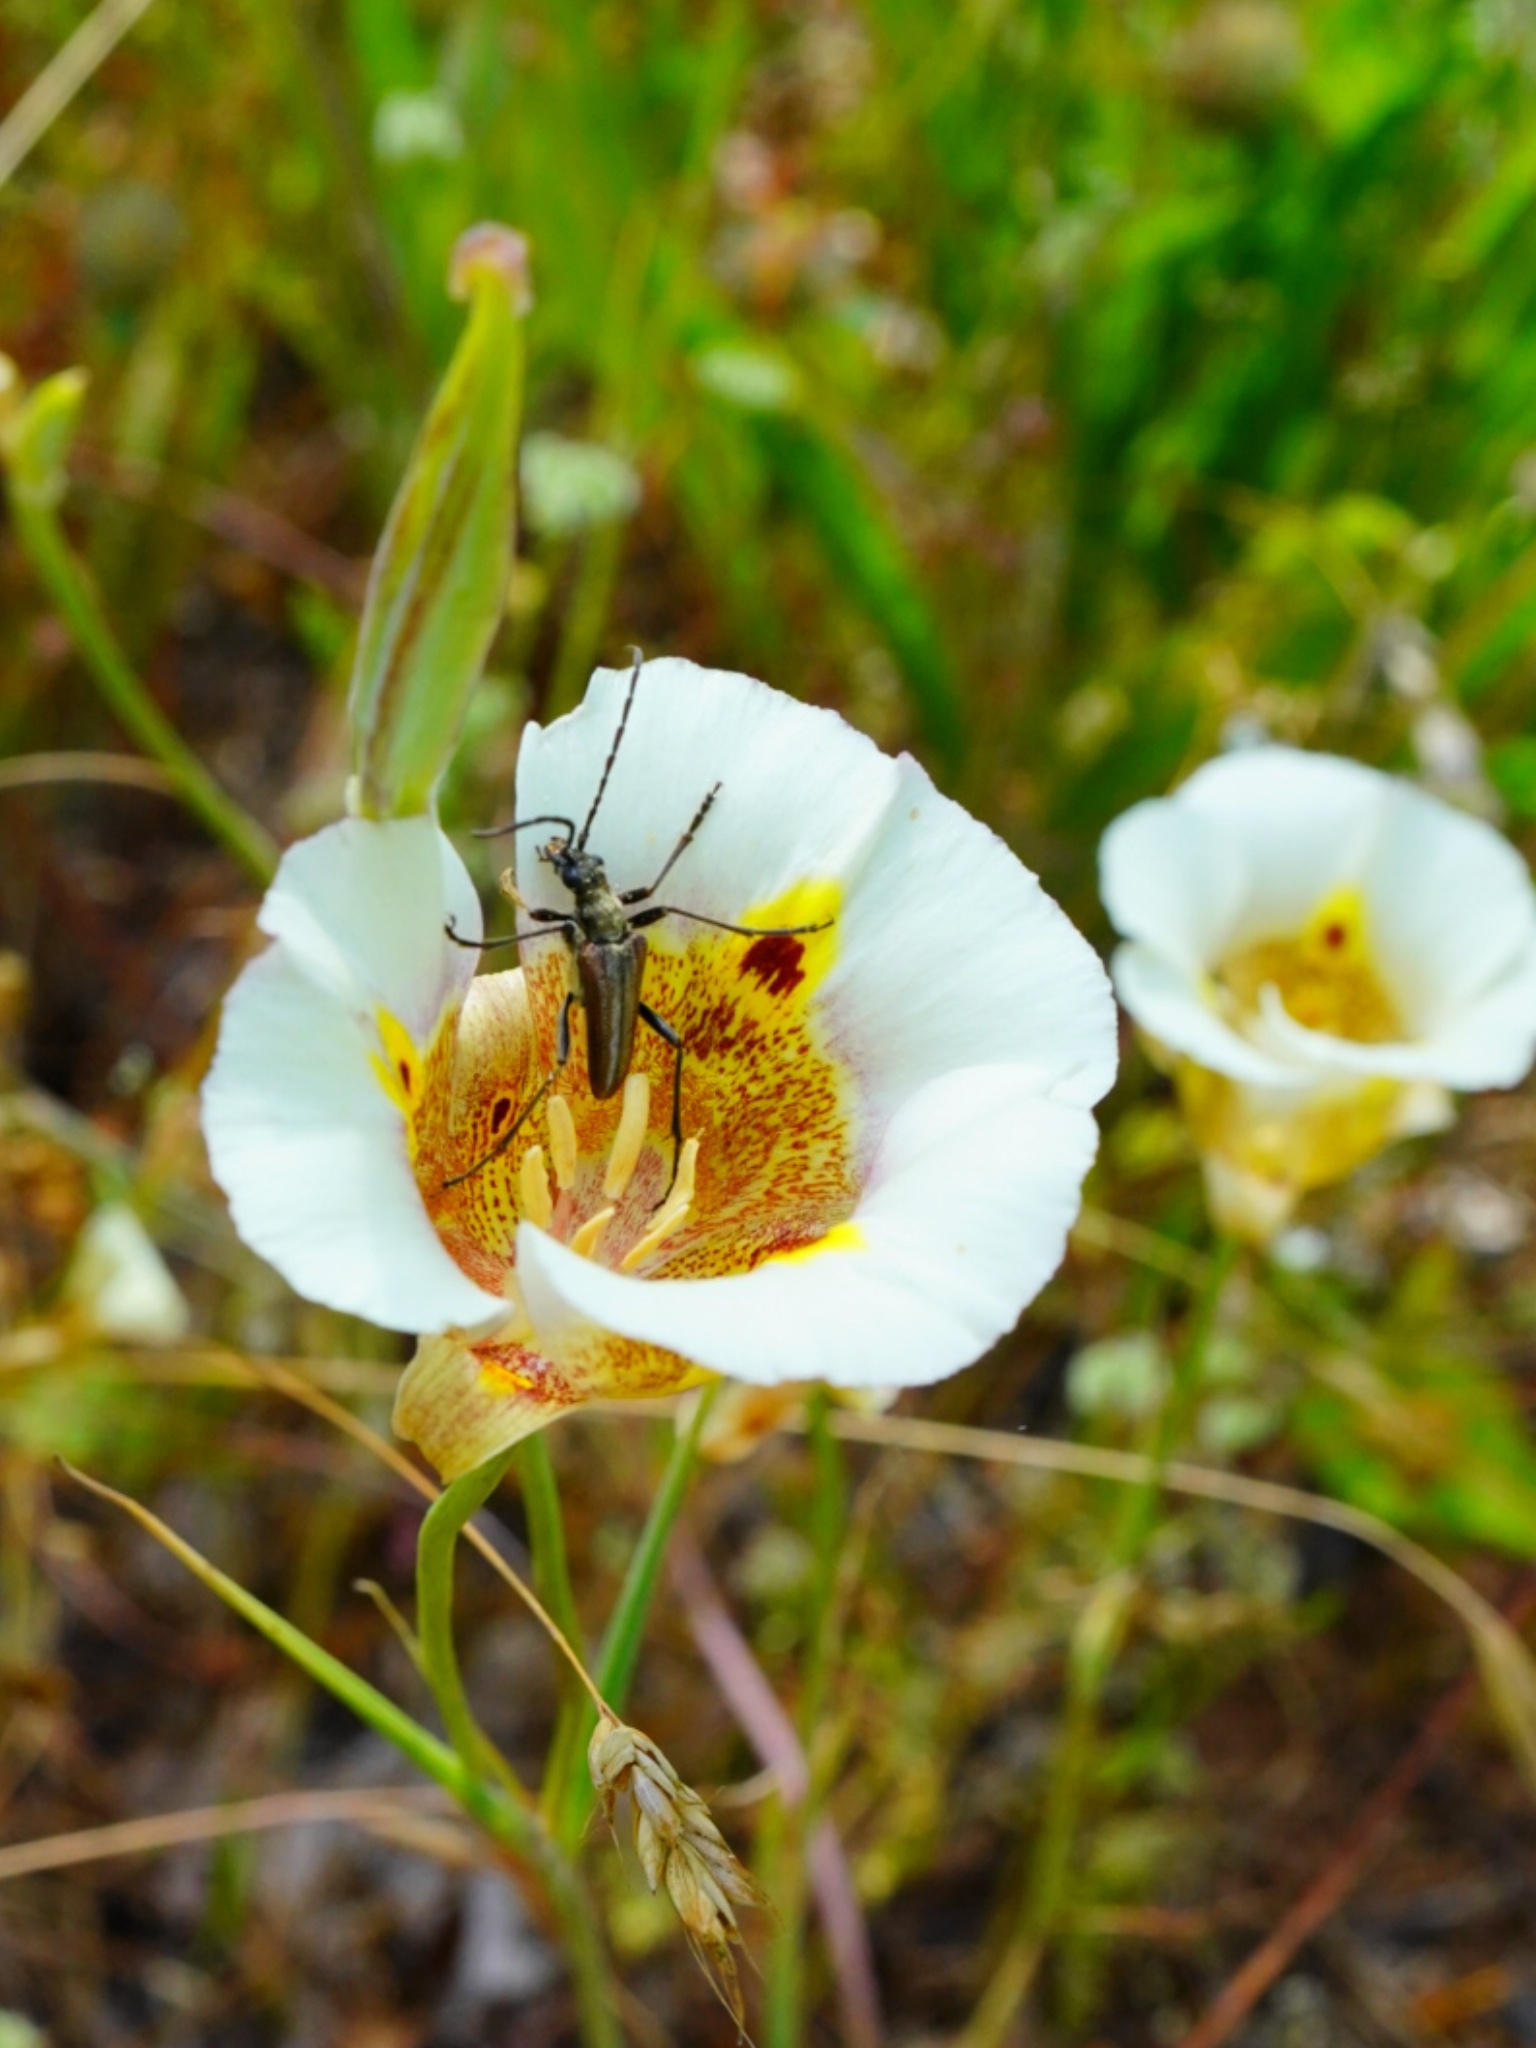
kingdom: Plantae
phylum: Tracheophyta
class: Liliopsida
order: Liliales
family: Liliaceae
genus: Calochortus
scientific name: Calochortus superbus
